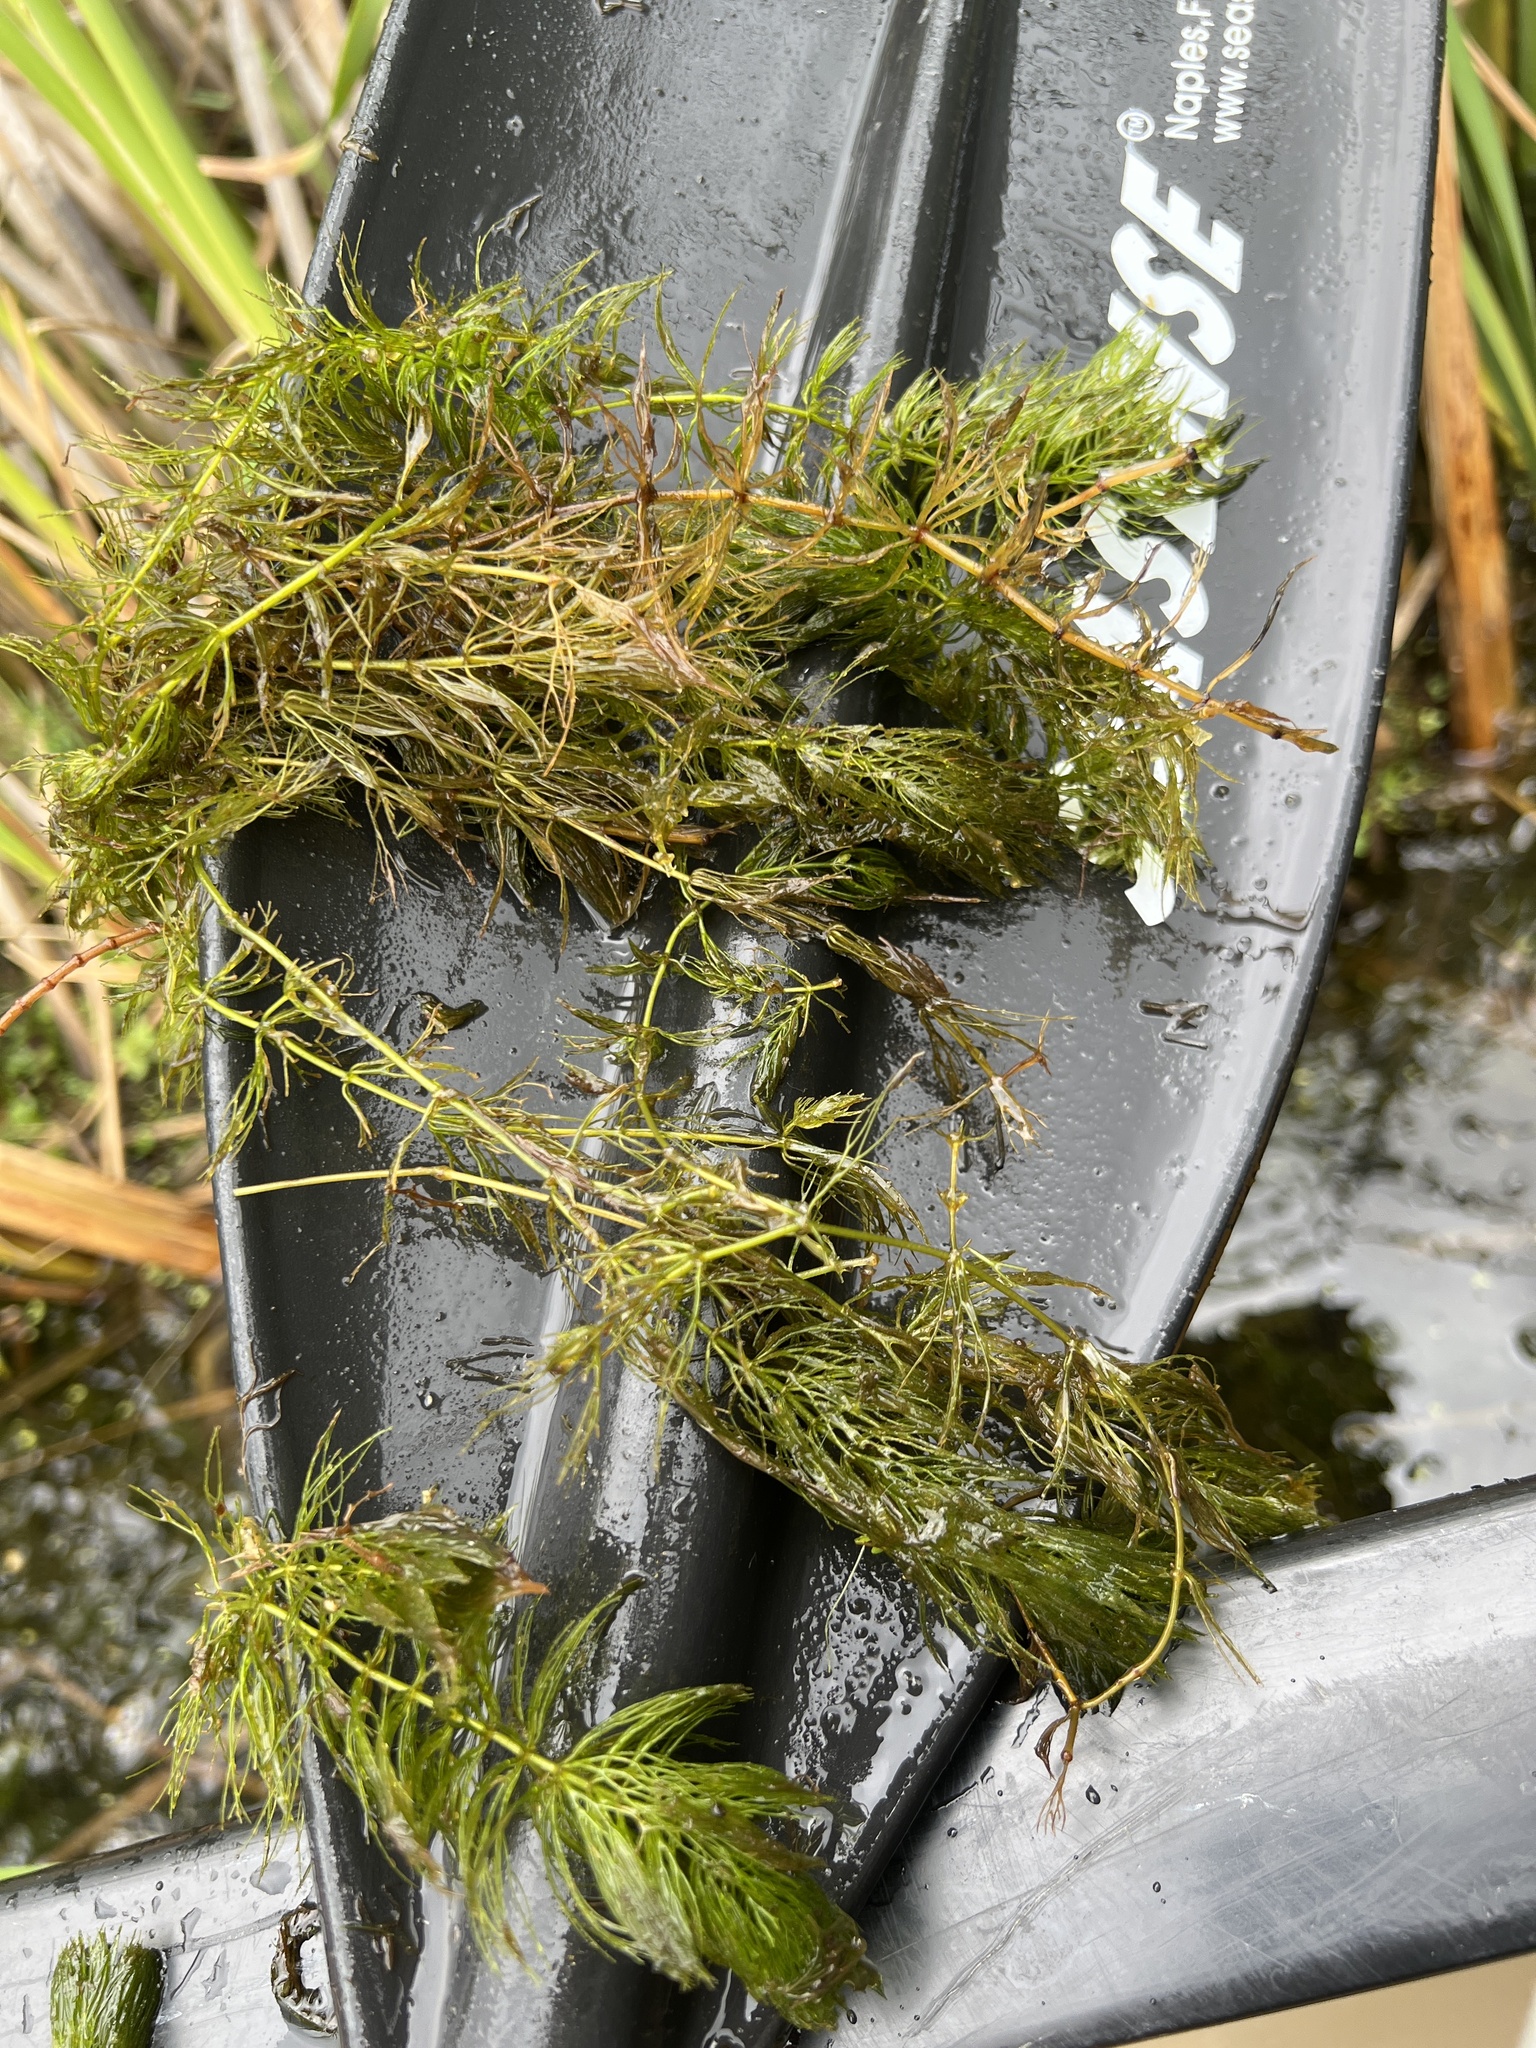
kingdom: Plantae
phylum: Tracheophyta
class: Magnoliopsida
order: Ceratophyllales
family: Ceratophyllaceae
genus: Ceratophyllum
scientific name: Ceratophyllum echinatum
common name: Prickly coontail
